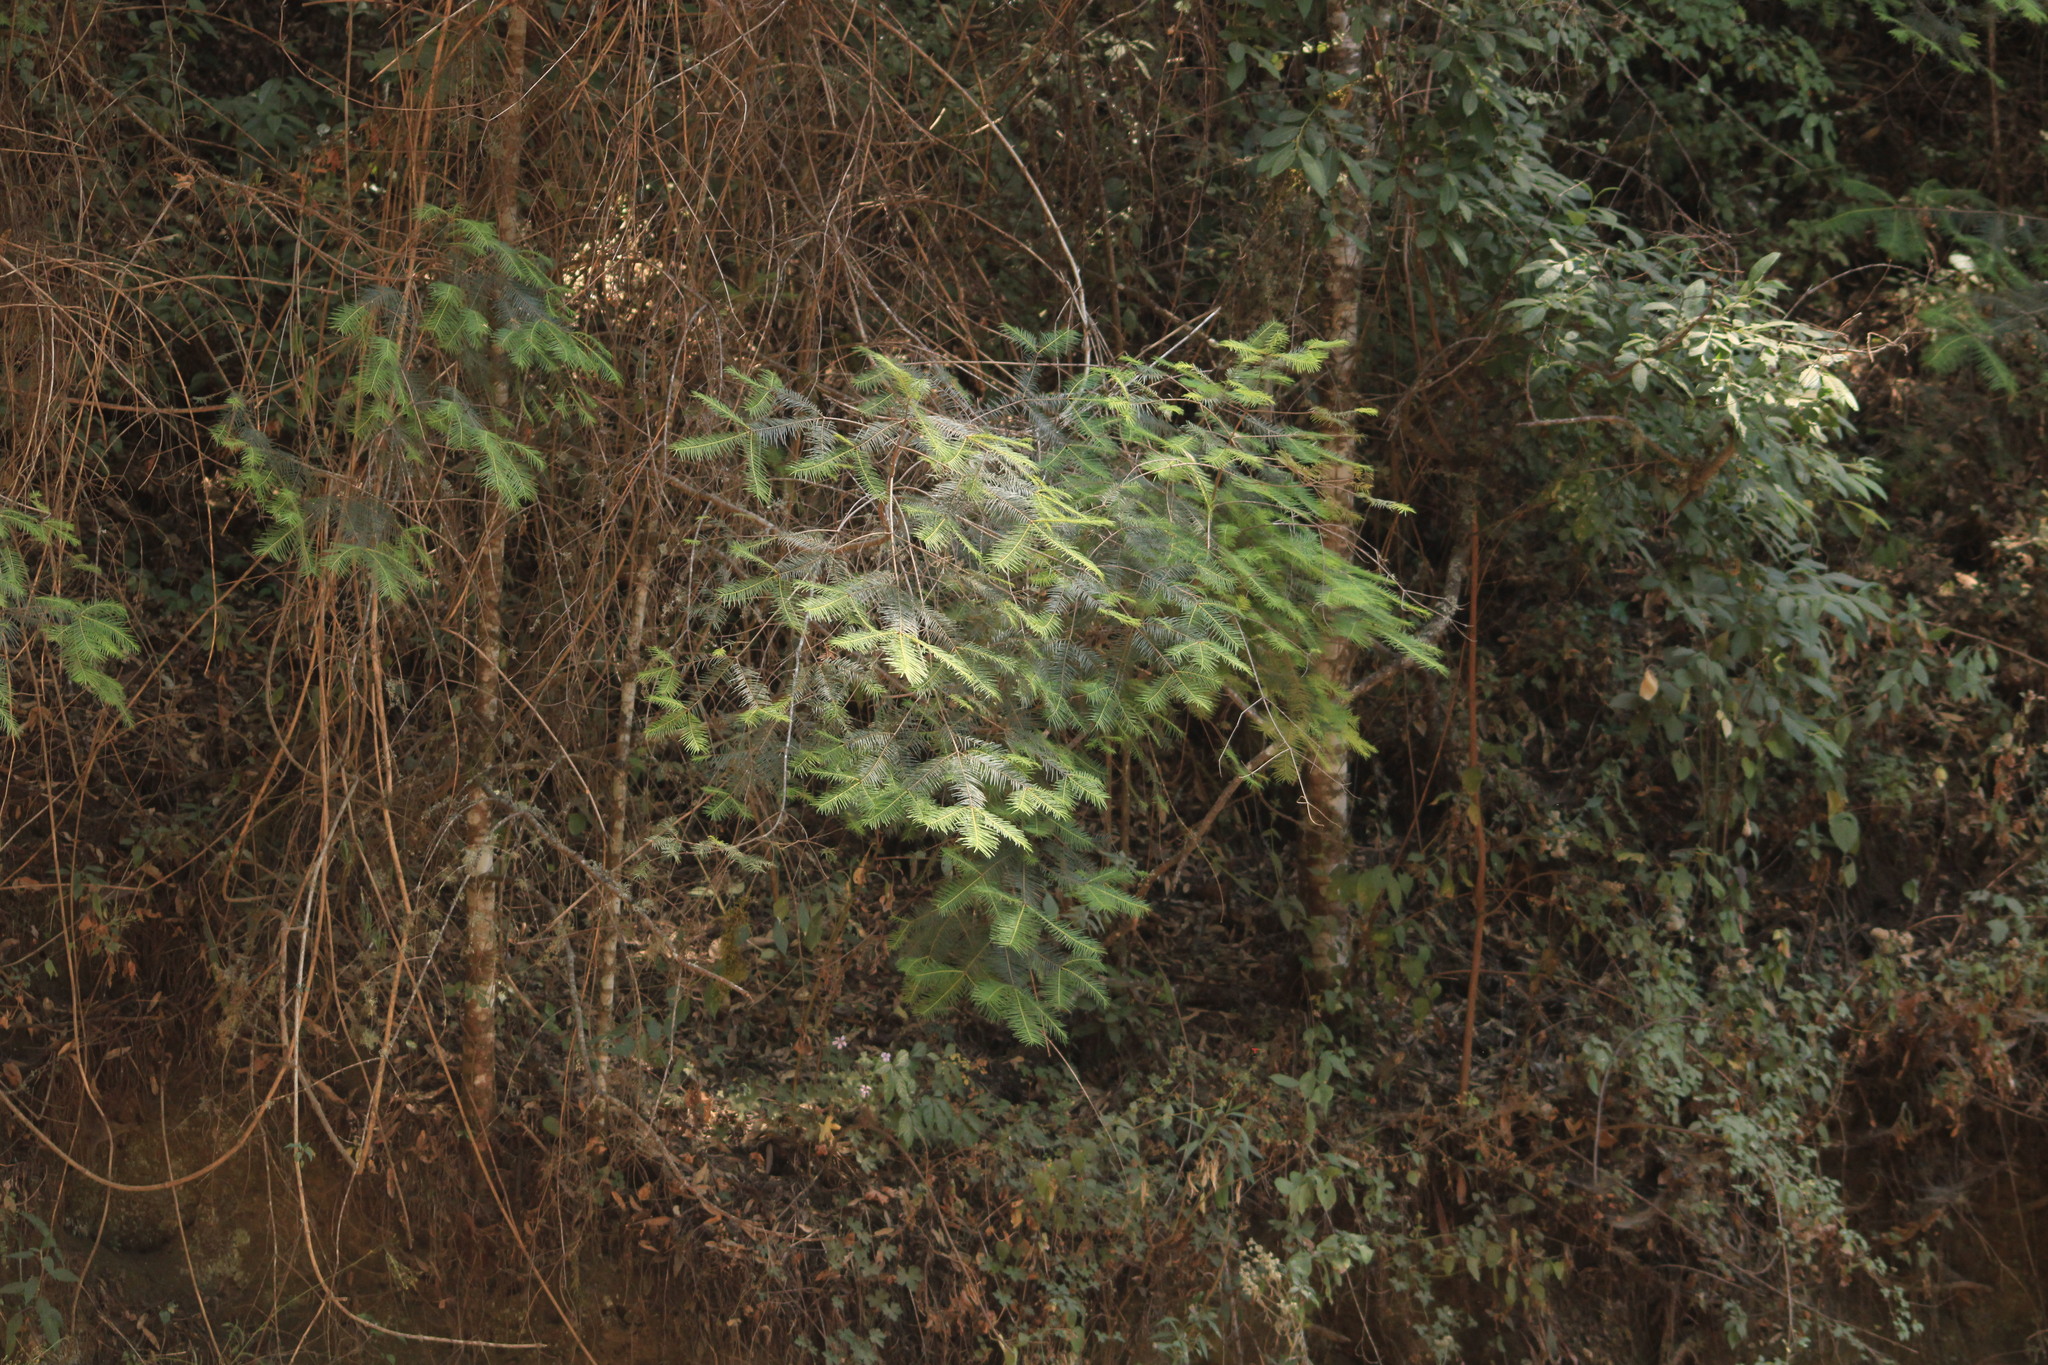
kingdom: Plantae
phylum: Tracheophyta
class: Pinopsida
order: Pinales
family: Pinaceae
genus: Abies
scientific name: Abies guatemalensis
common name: Guatemalan fir
